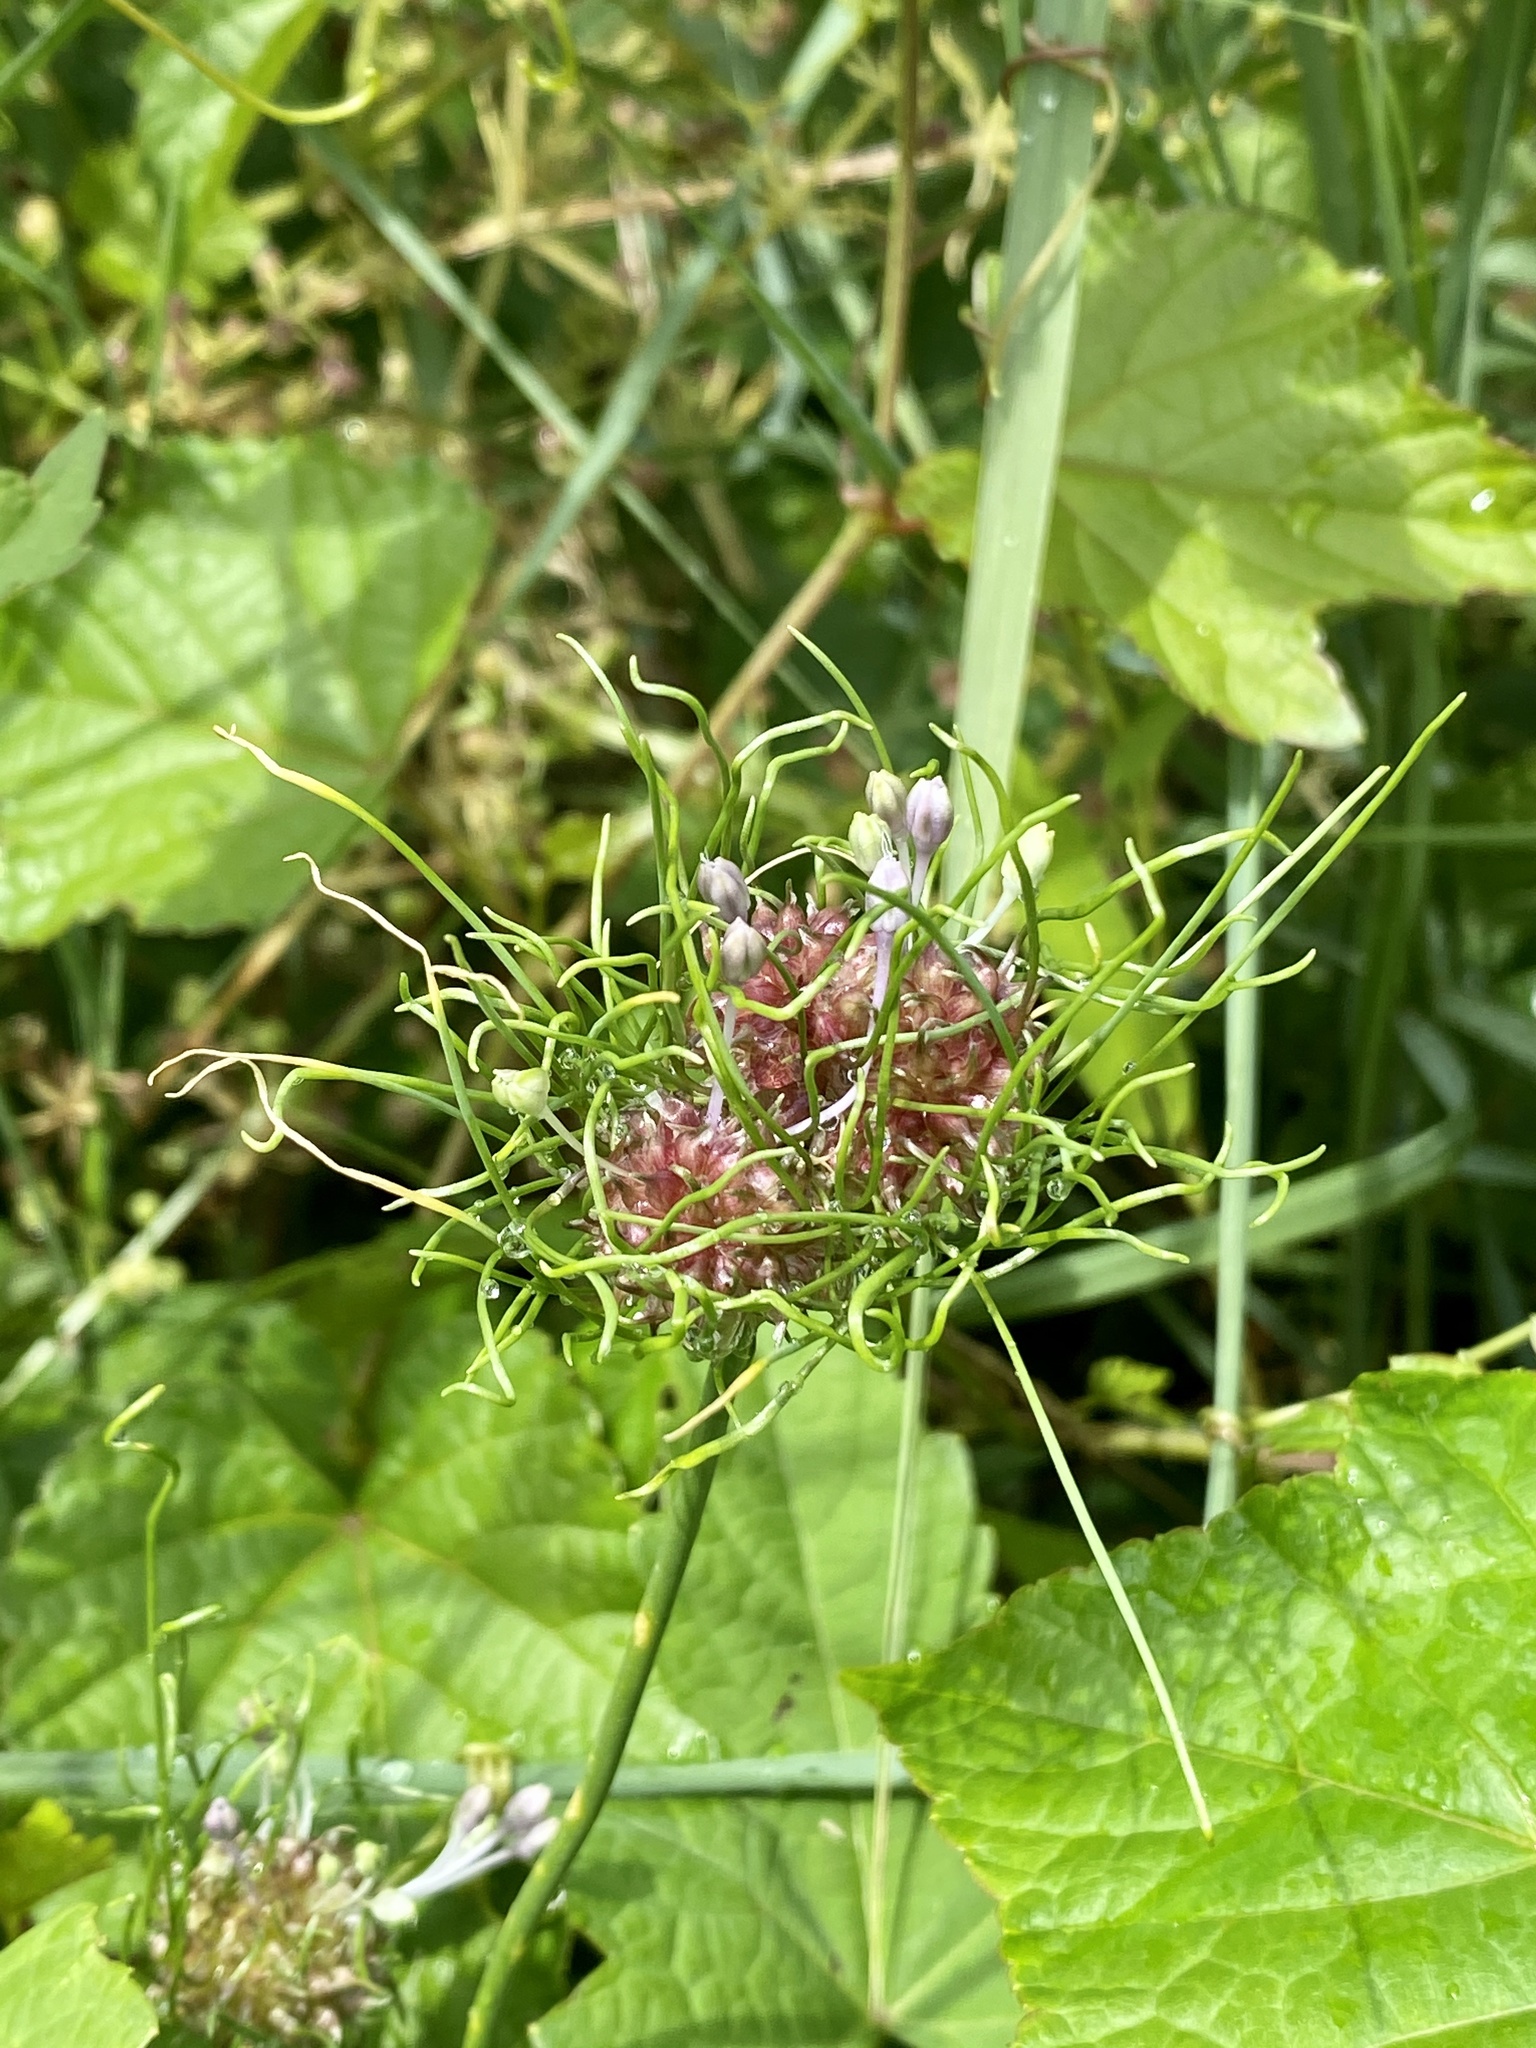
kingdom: Plantae
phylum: Tracheophyta
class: Liliopsida
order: Asparagales
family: Amaryllidaceae
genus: Allium
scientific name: Allium vineale
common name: Crow garlic
